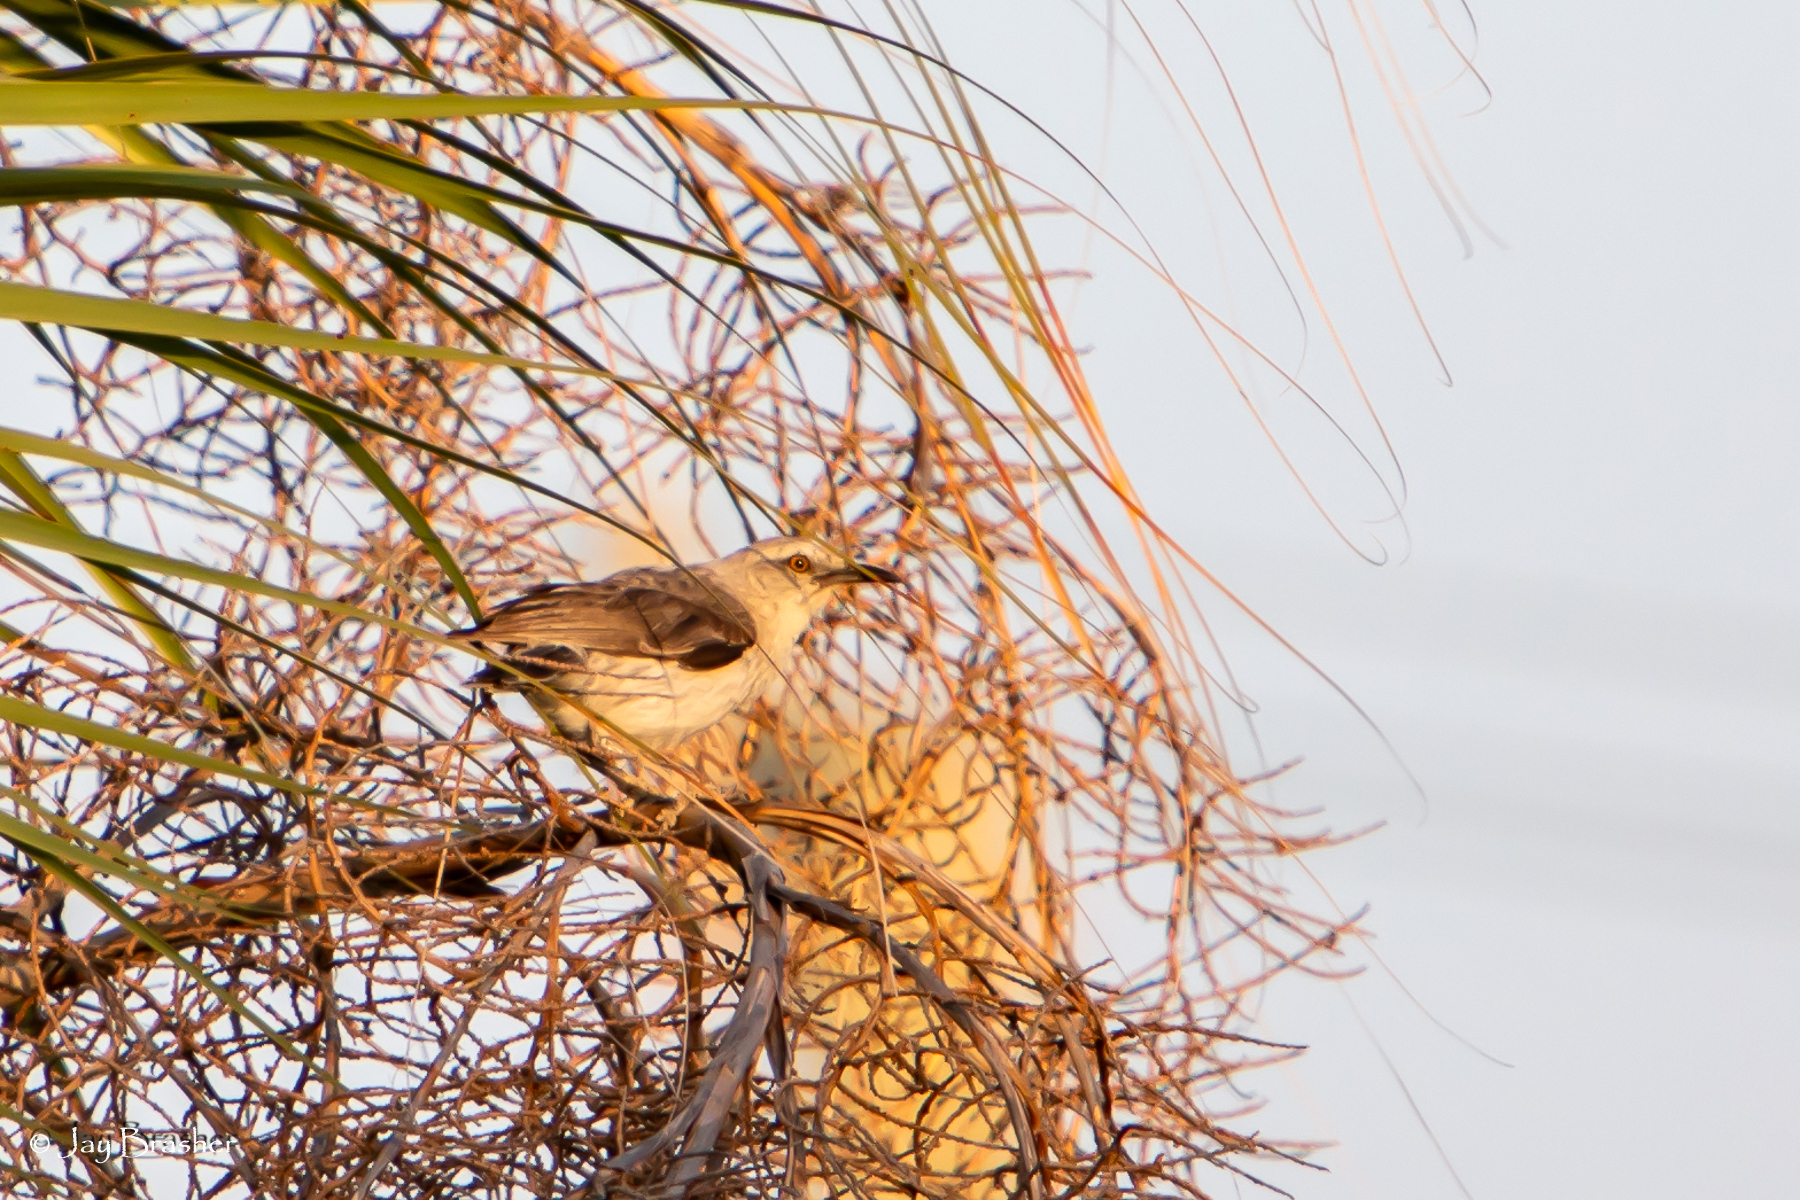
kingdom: Animalia
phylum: Chordata
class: Aves
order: Passeriformes
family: Mimidae
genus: Mimus
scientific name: Mimus gilvus
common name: Tropical mockingbird
